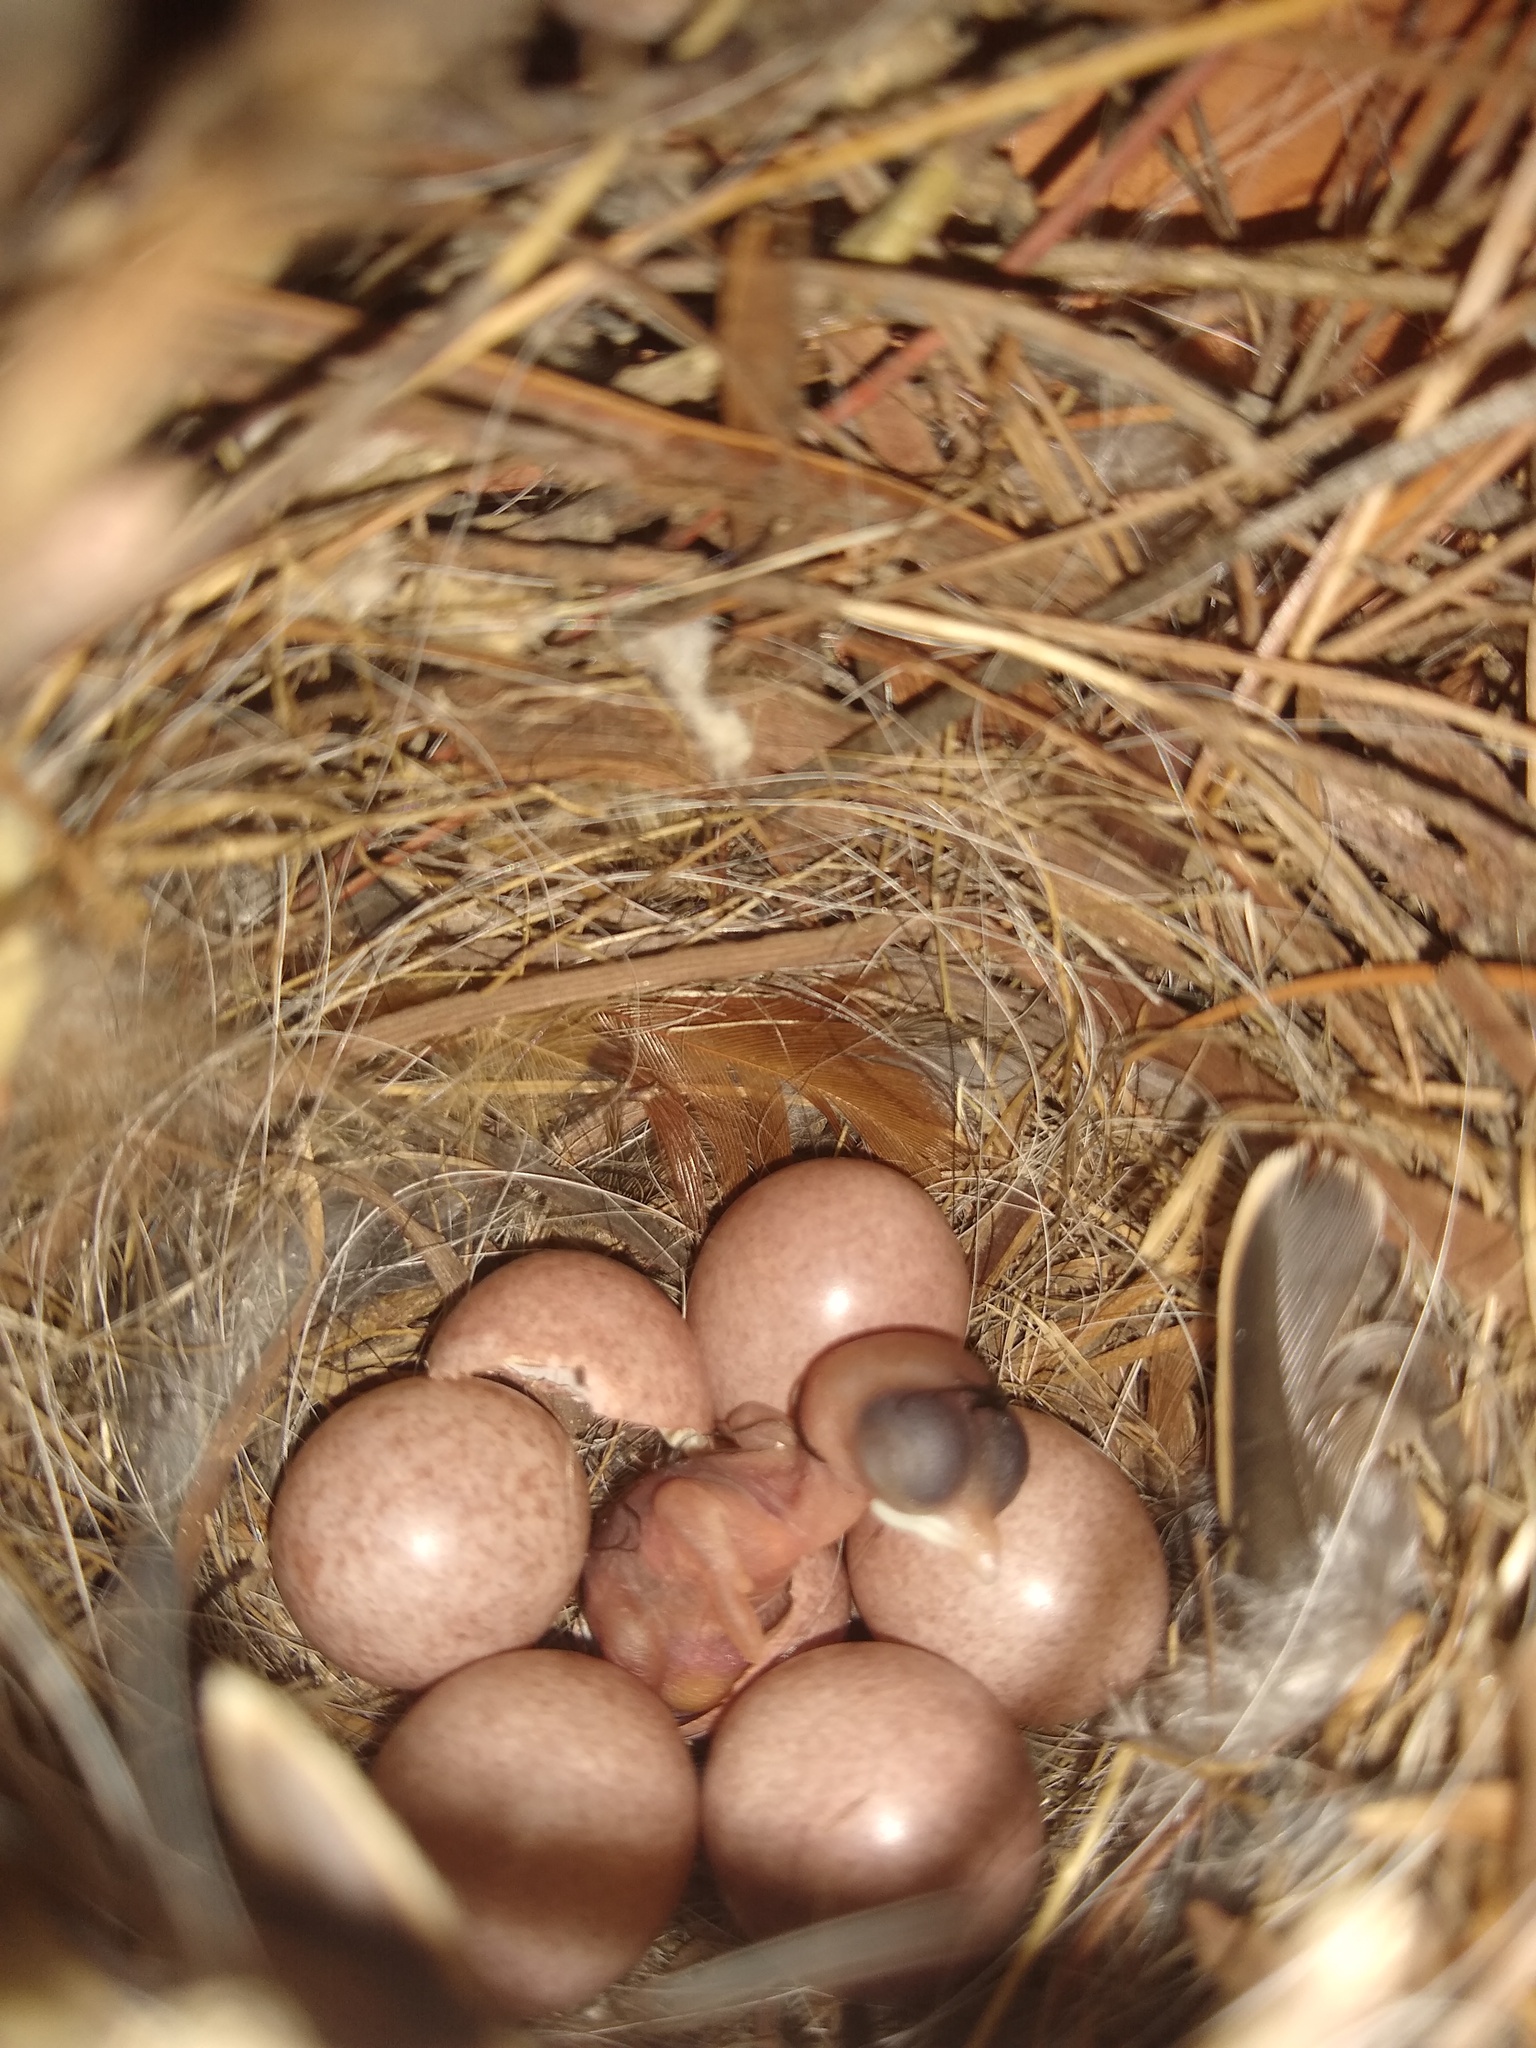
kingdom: Animalia
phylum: Chordata
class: Aves
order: Passeriformes
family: Troglodytidae
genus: Troglodytes
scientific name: Troglodytes aedon
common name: House wren
